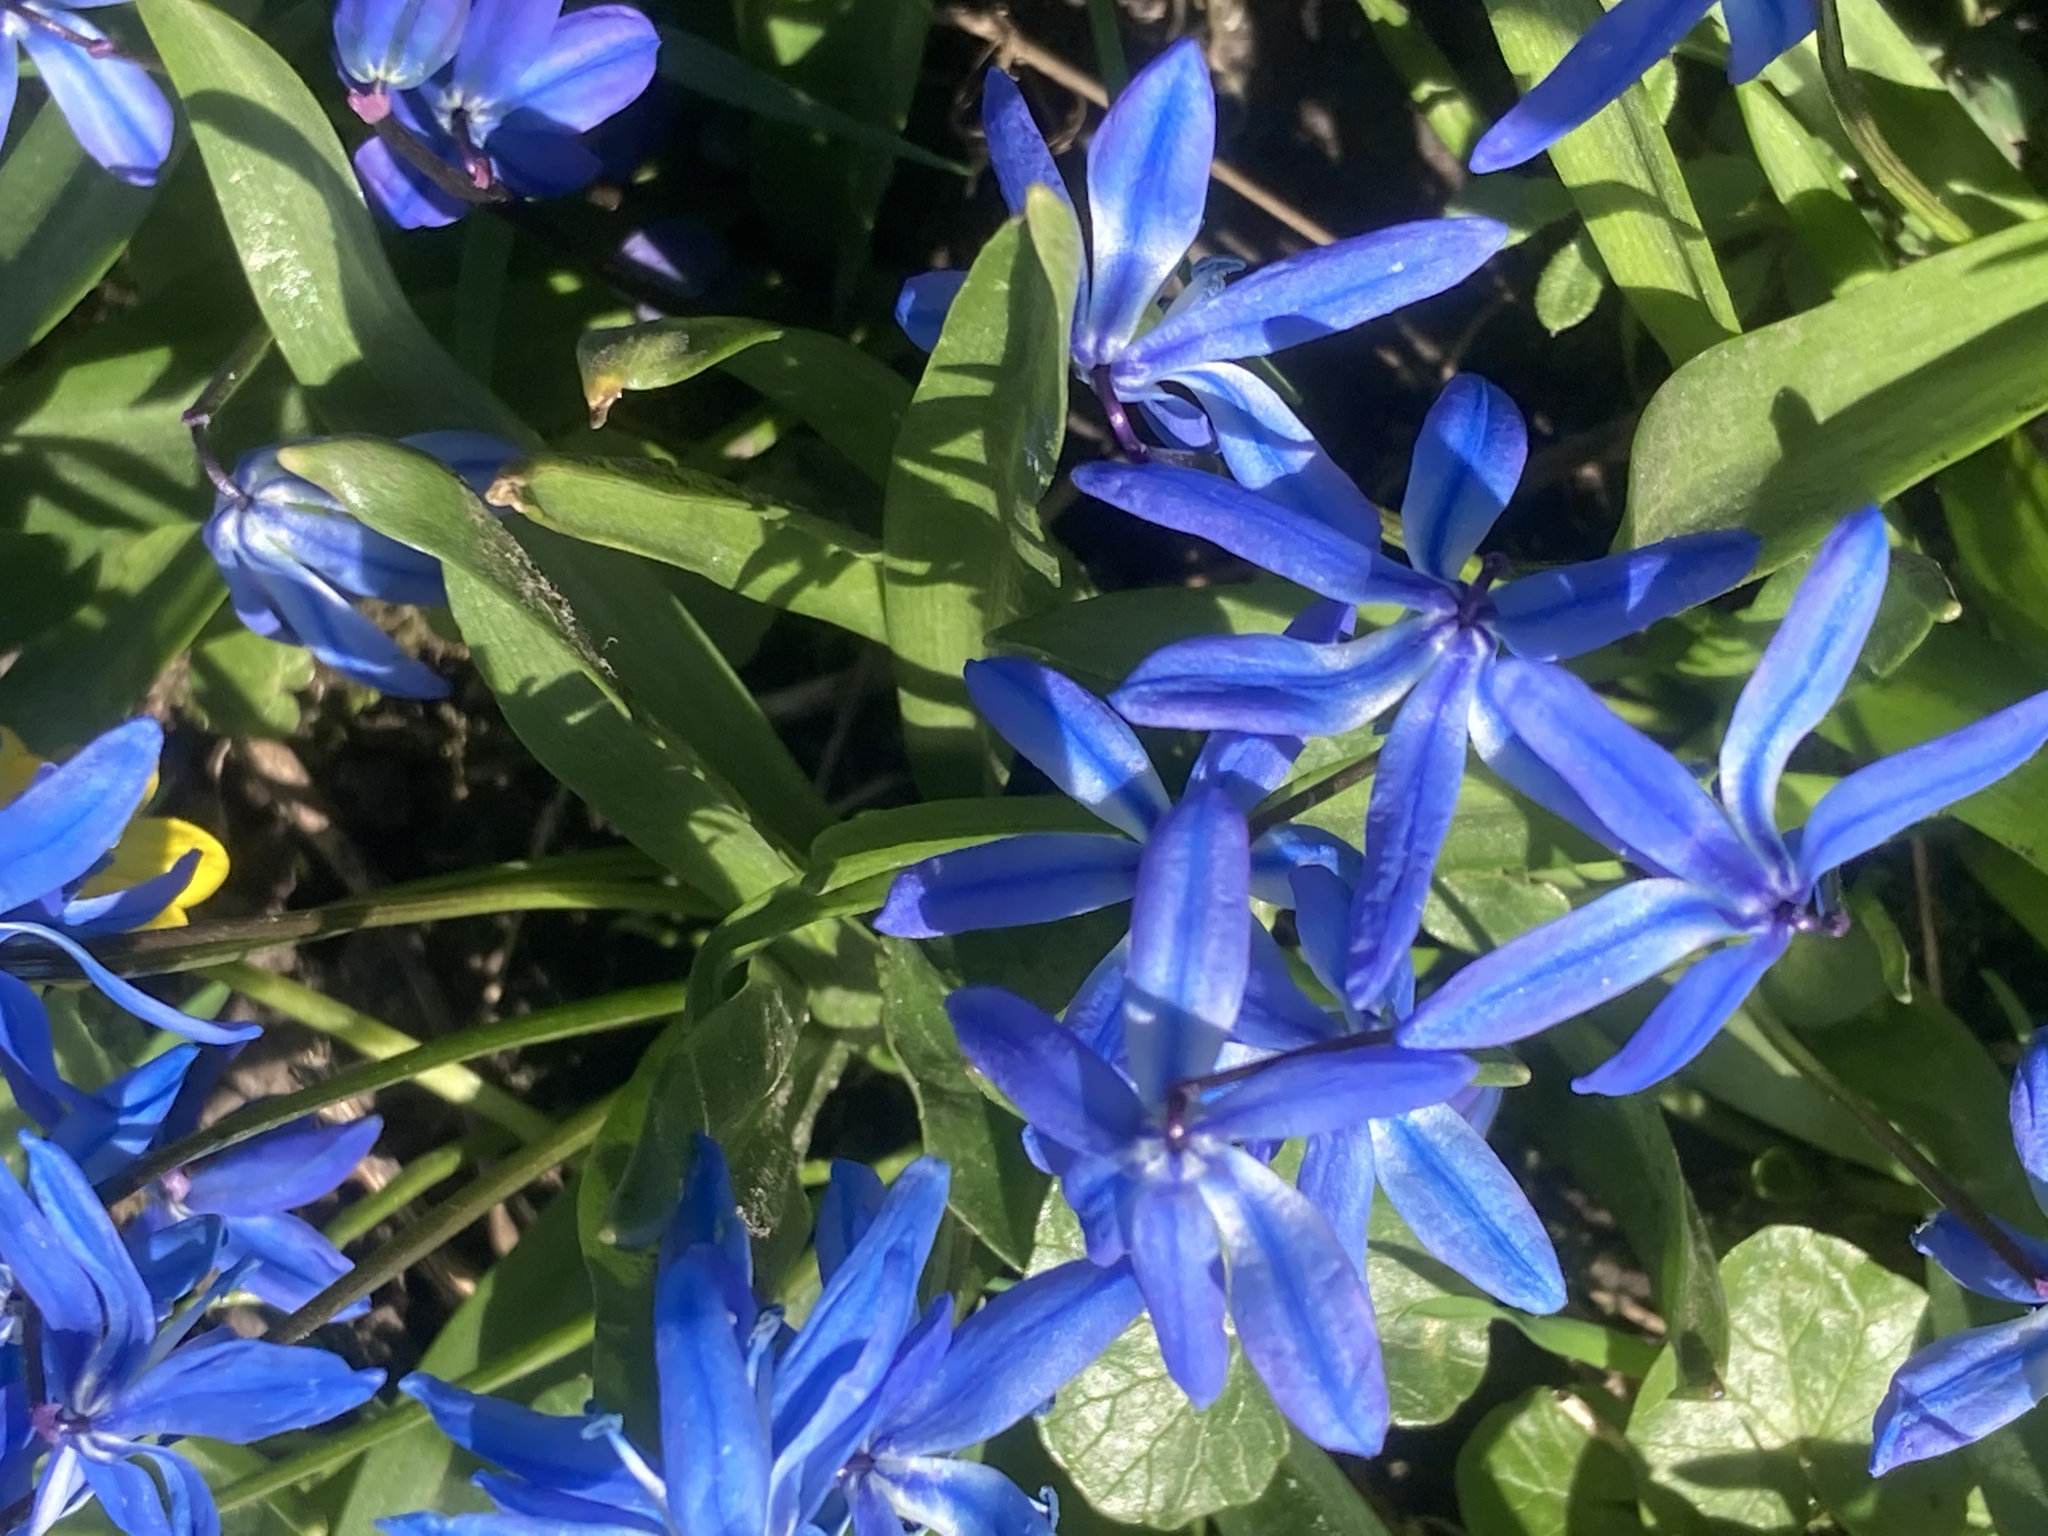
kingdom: Plantae
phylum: Tracheophyta
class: Liliopsida
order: Asparagales
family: Asparagaceae
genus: Scilla
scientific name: Scilla siberica
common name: Siberian squill
